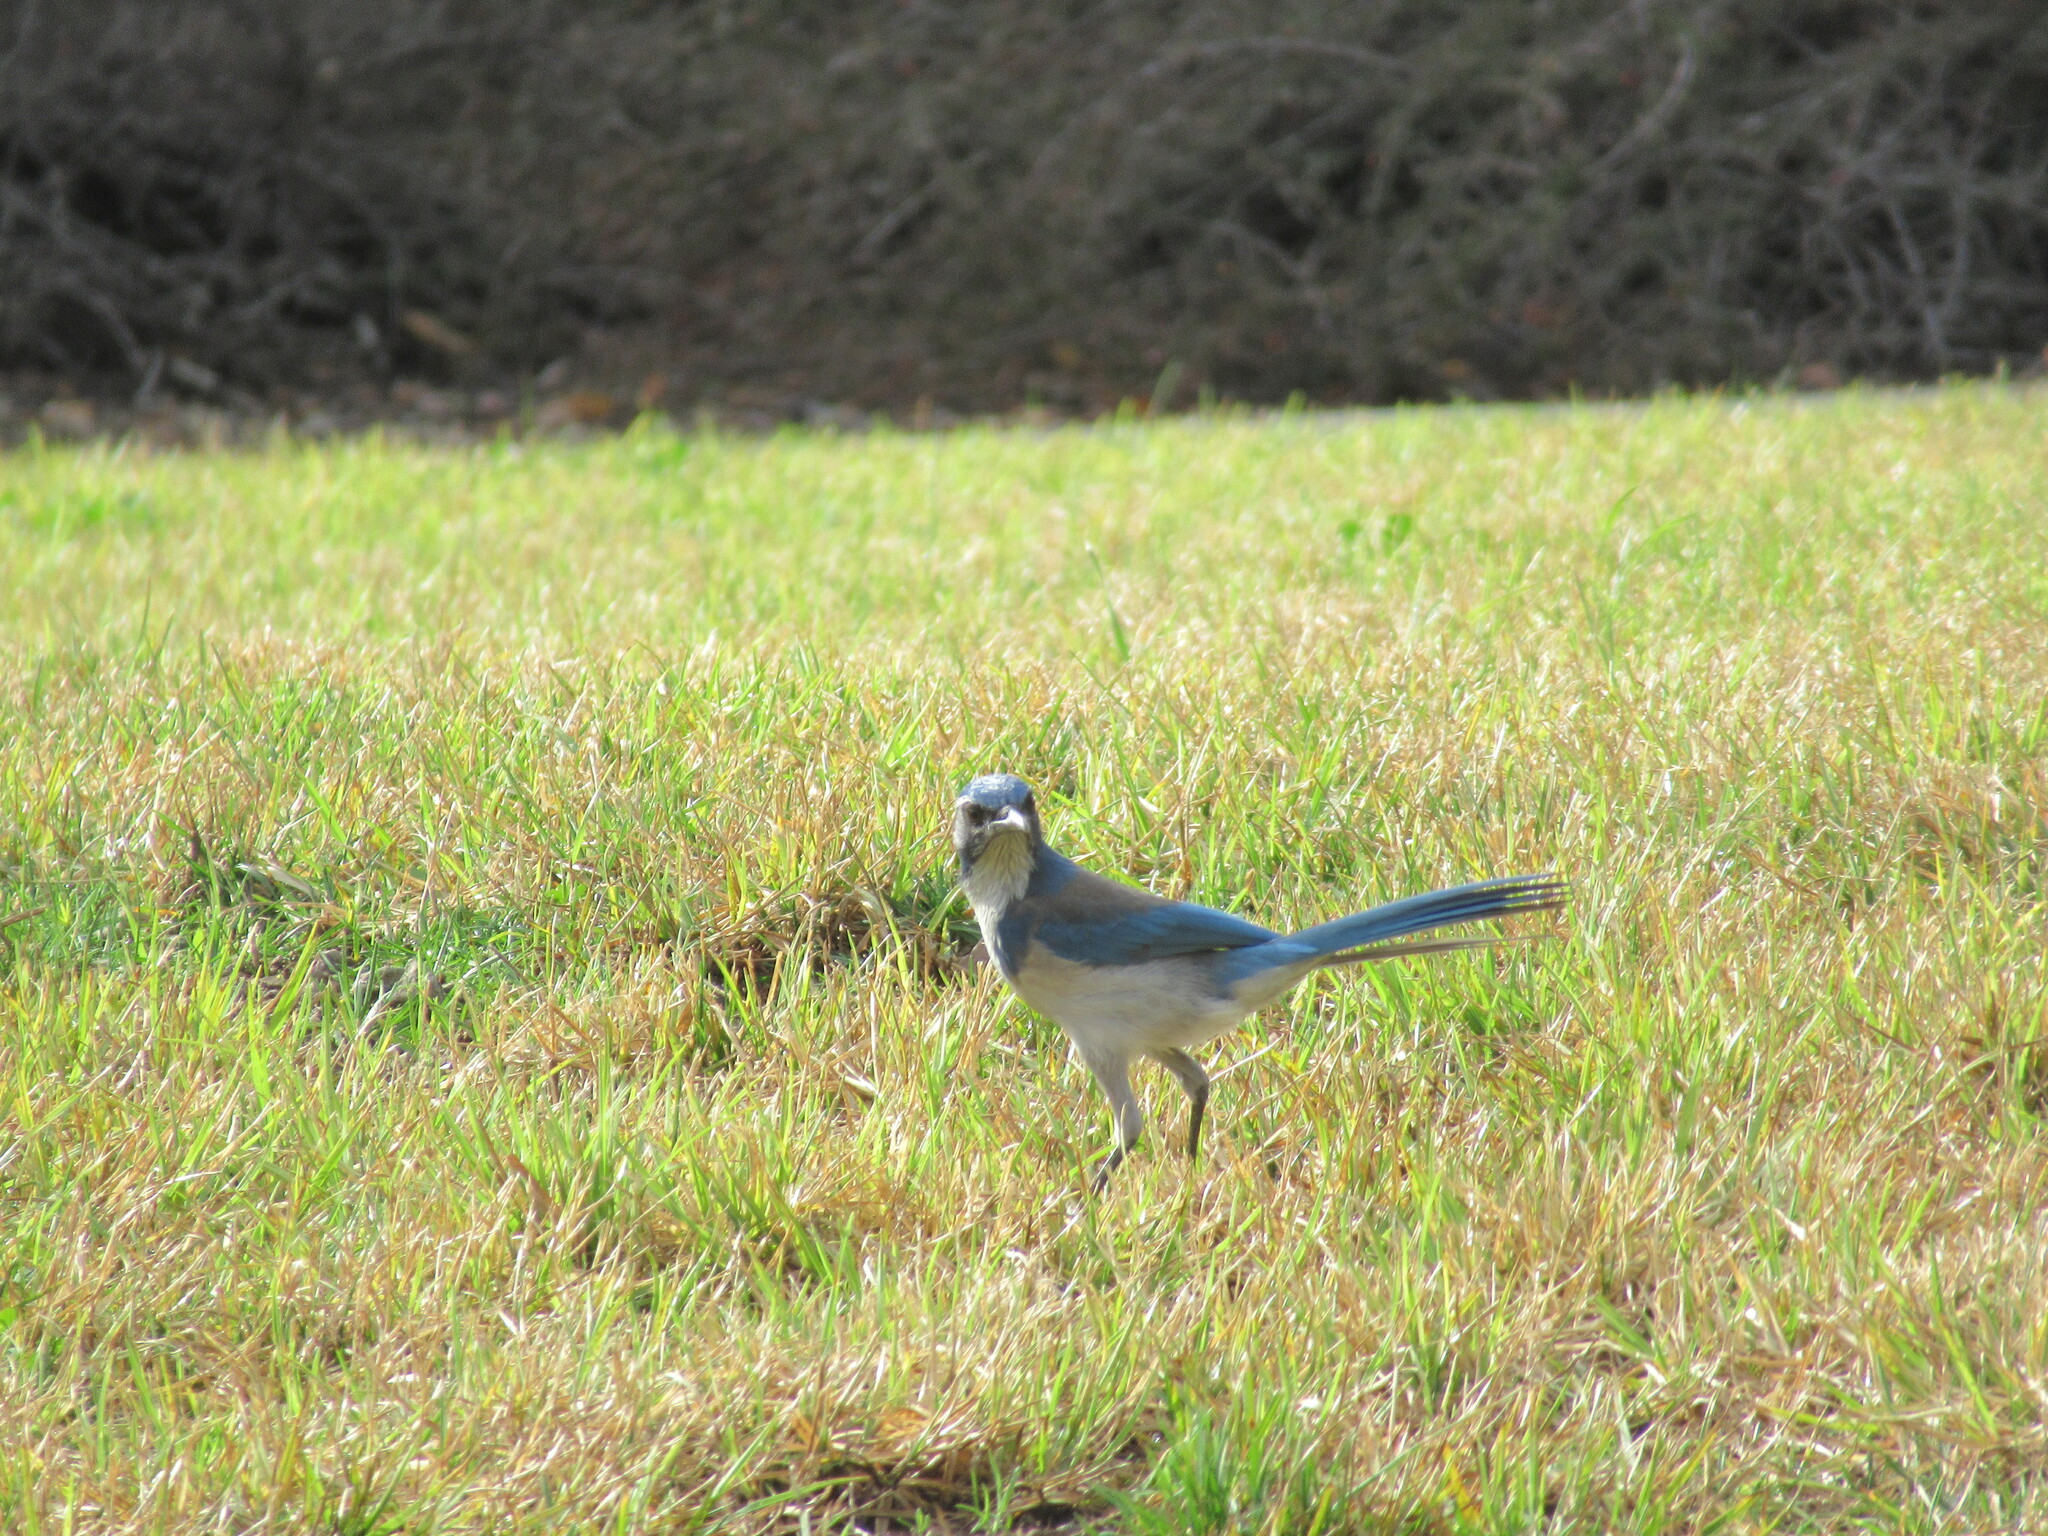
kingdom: Animalia
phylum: Chordata
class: Aves
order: Passeriformes
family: Corvidae
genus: Aphelocoma
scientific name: Aphelocoma californica
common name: California scrub-jay
